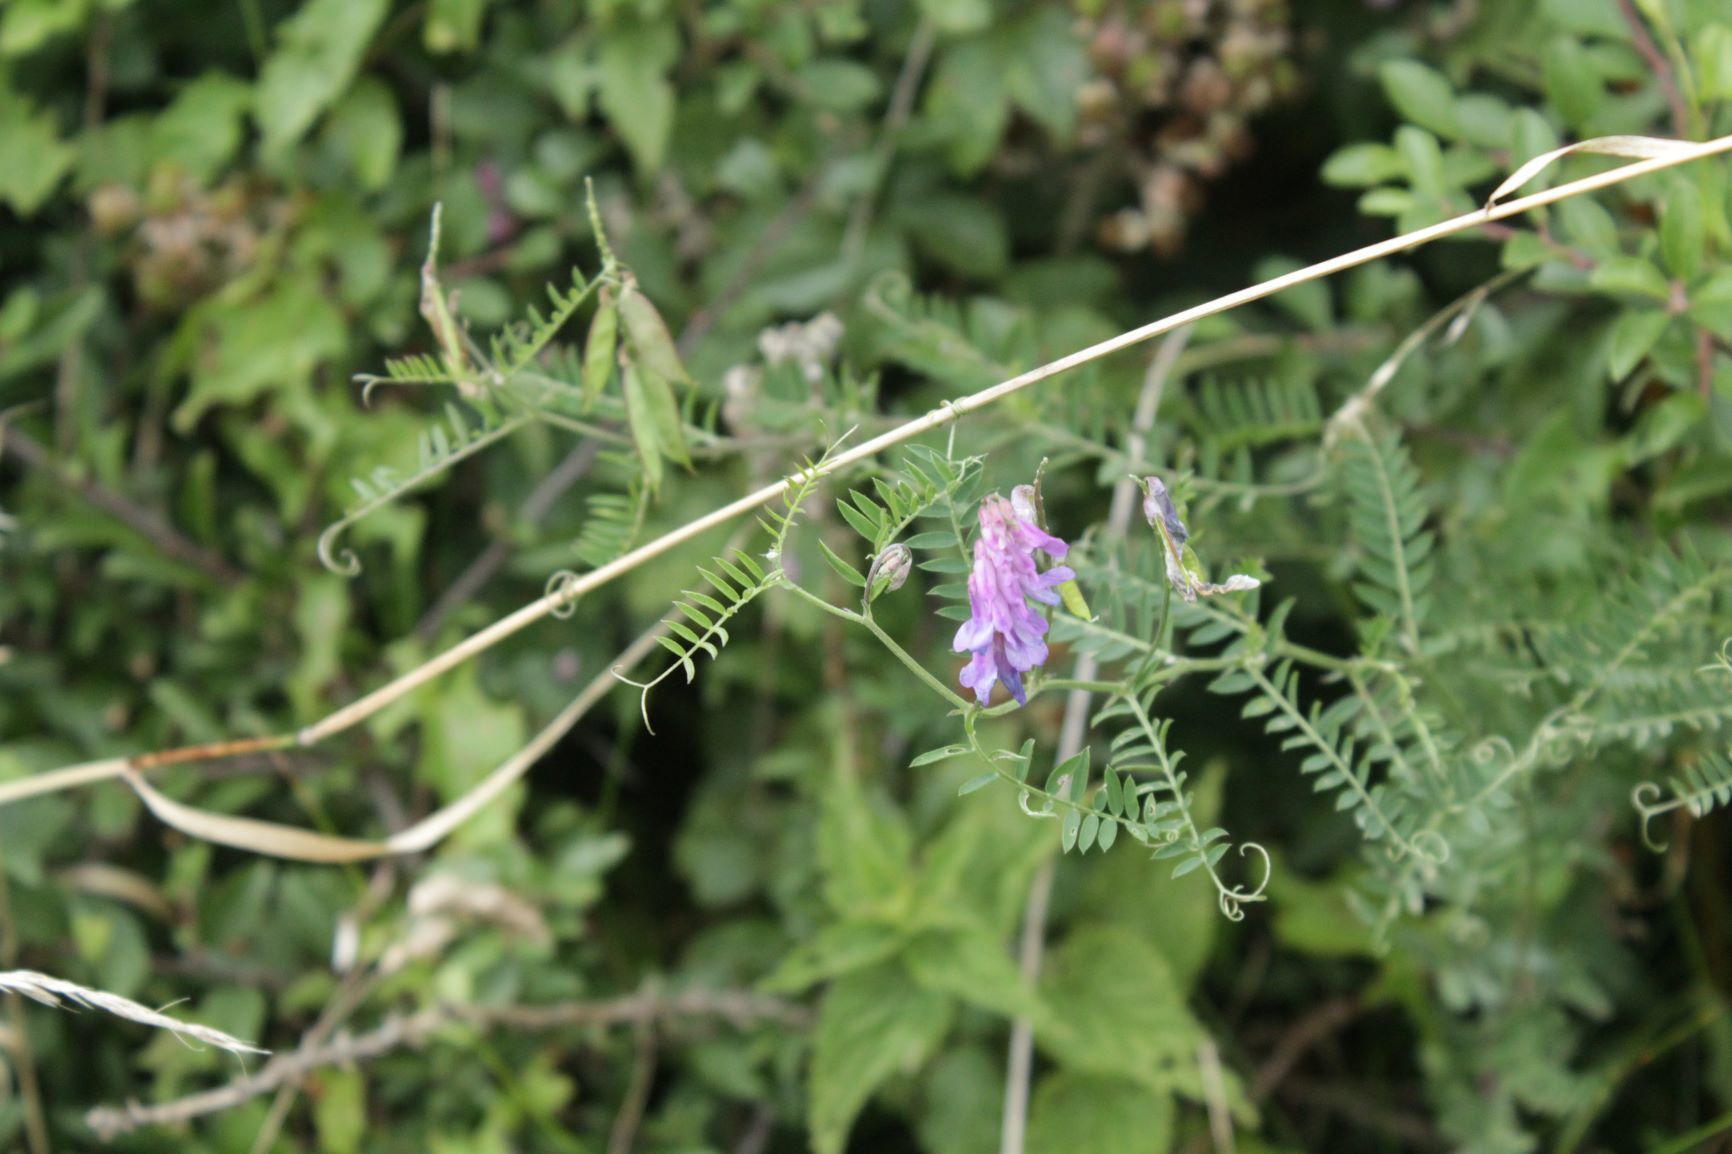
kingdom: Plantae
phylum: Tracheophyta
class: Magnoliopsida
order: Fabales
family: Fabaceae
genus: Vicia
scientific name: Vicia cracca
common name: Bird vetch
